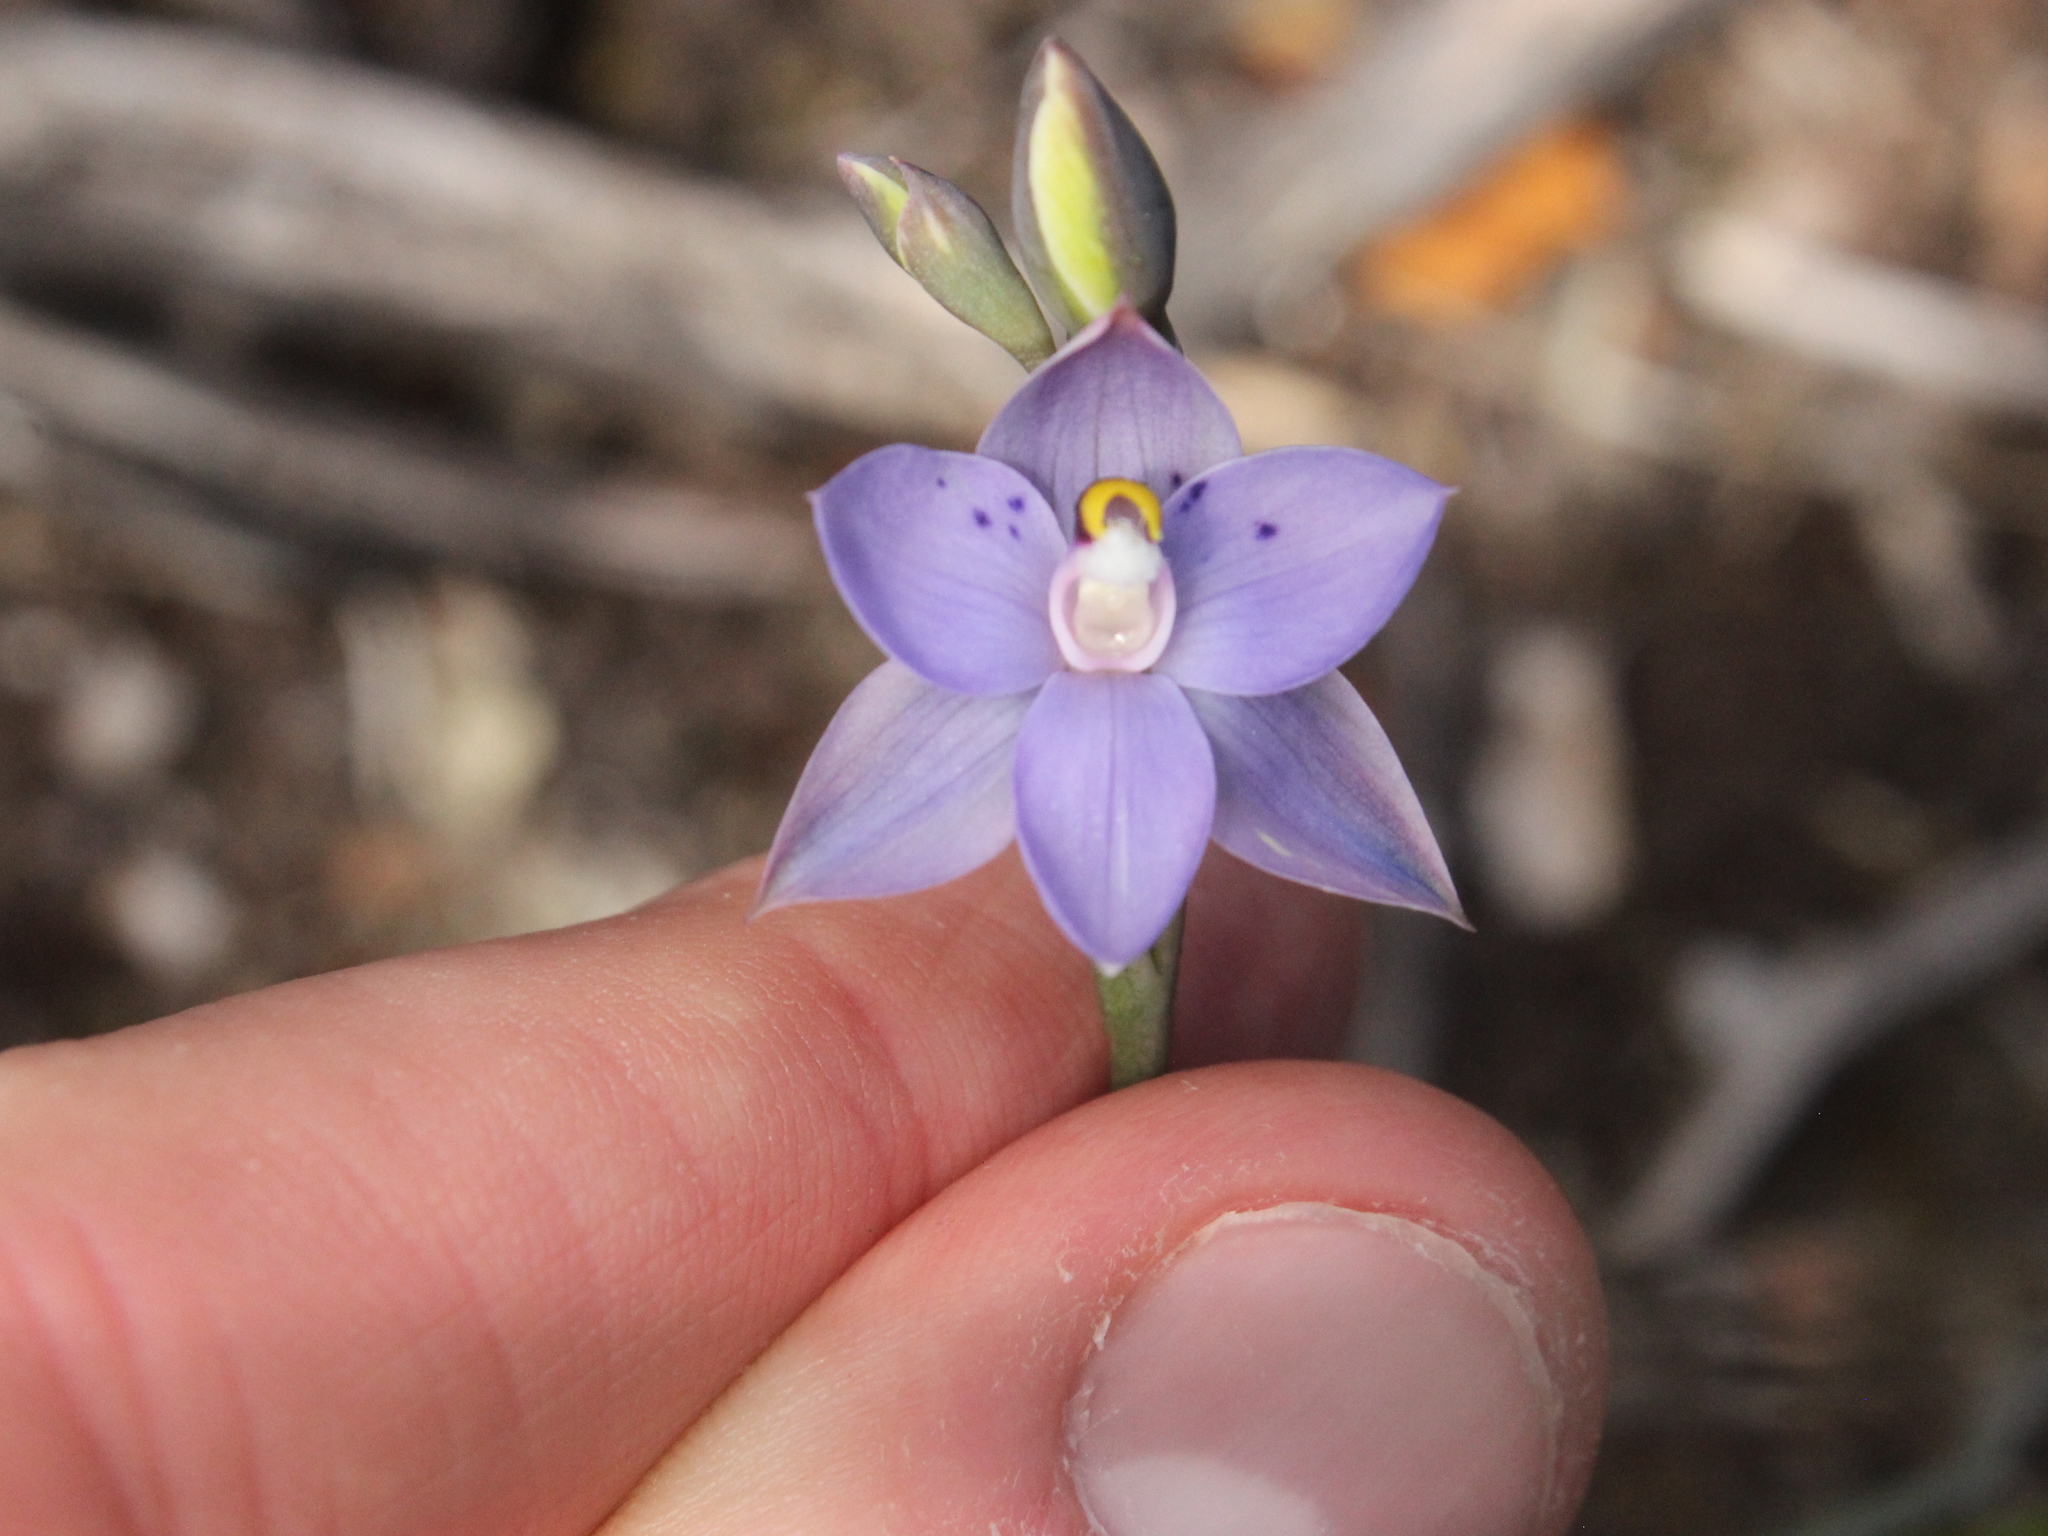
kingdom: Plantae
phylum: Tracheophyta
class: Liliopsida
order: Asparagales
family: Orchidaceae
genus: Thelymitra
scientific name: Thelymitra nervosa
